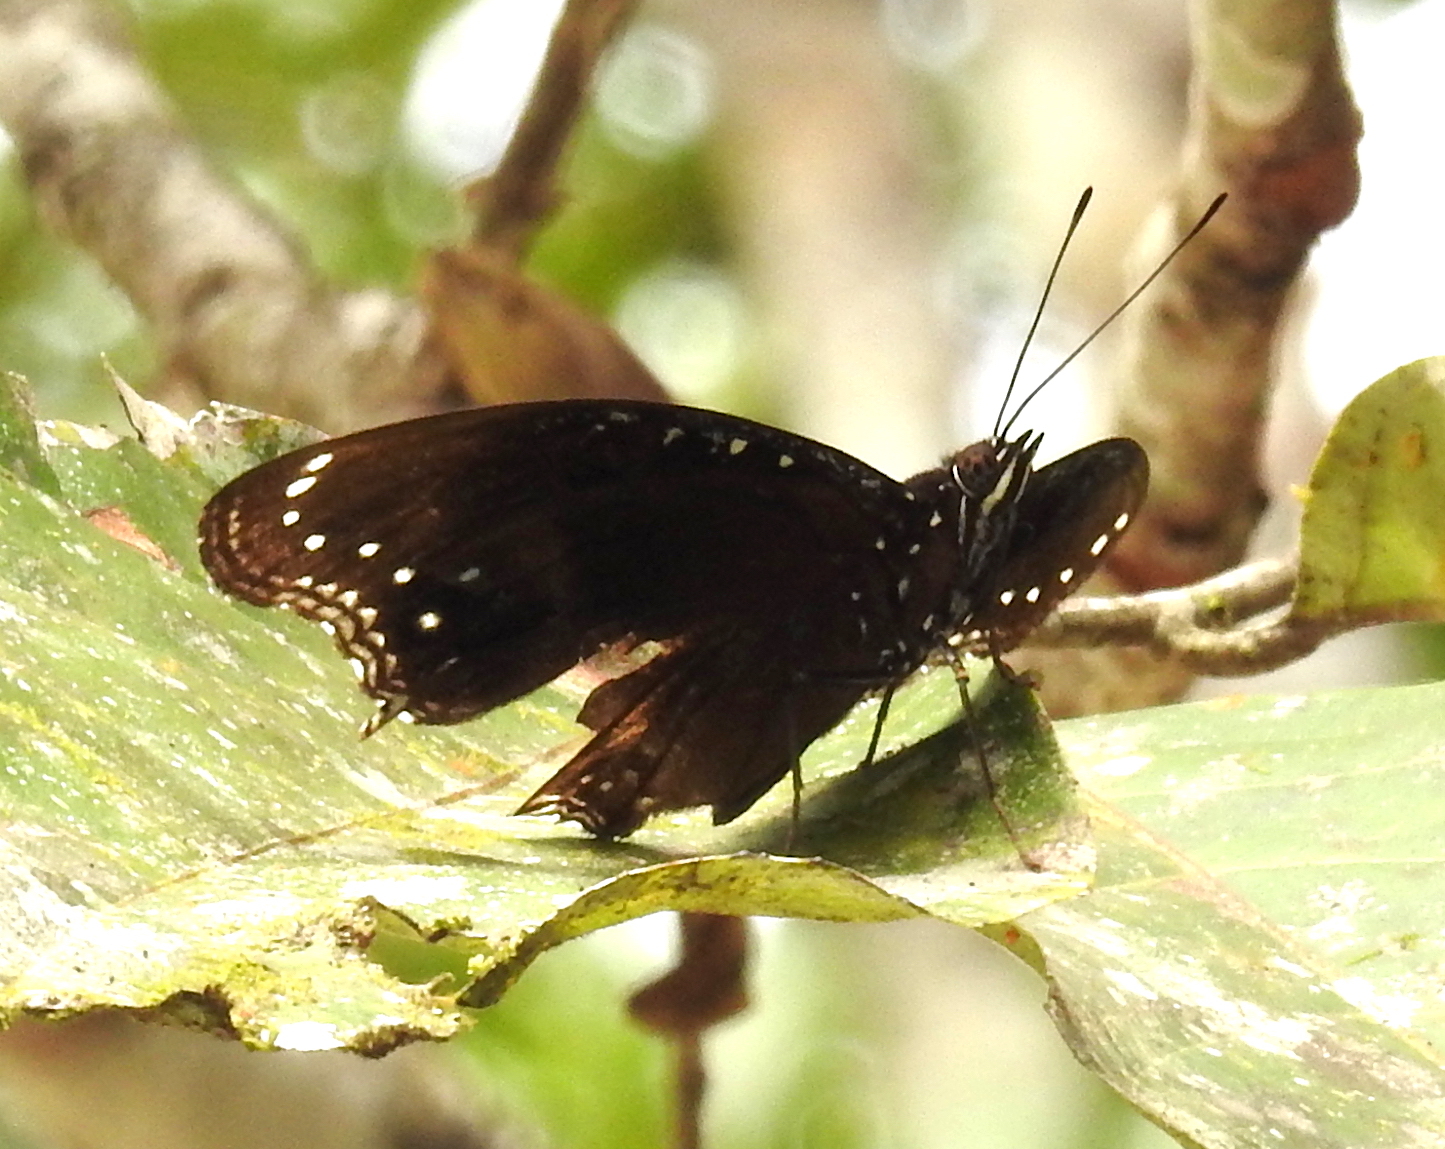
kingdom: Animalia
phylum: Arthropoda
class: Insecta
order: Lepidoptera
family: Nymphalidae
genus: Hypolimnas
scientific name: Hypolimnas alimena
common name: Blue-banded eggfly
